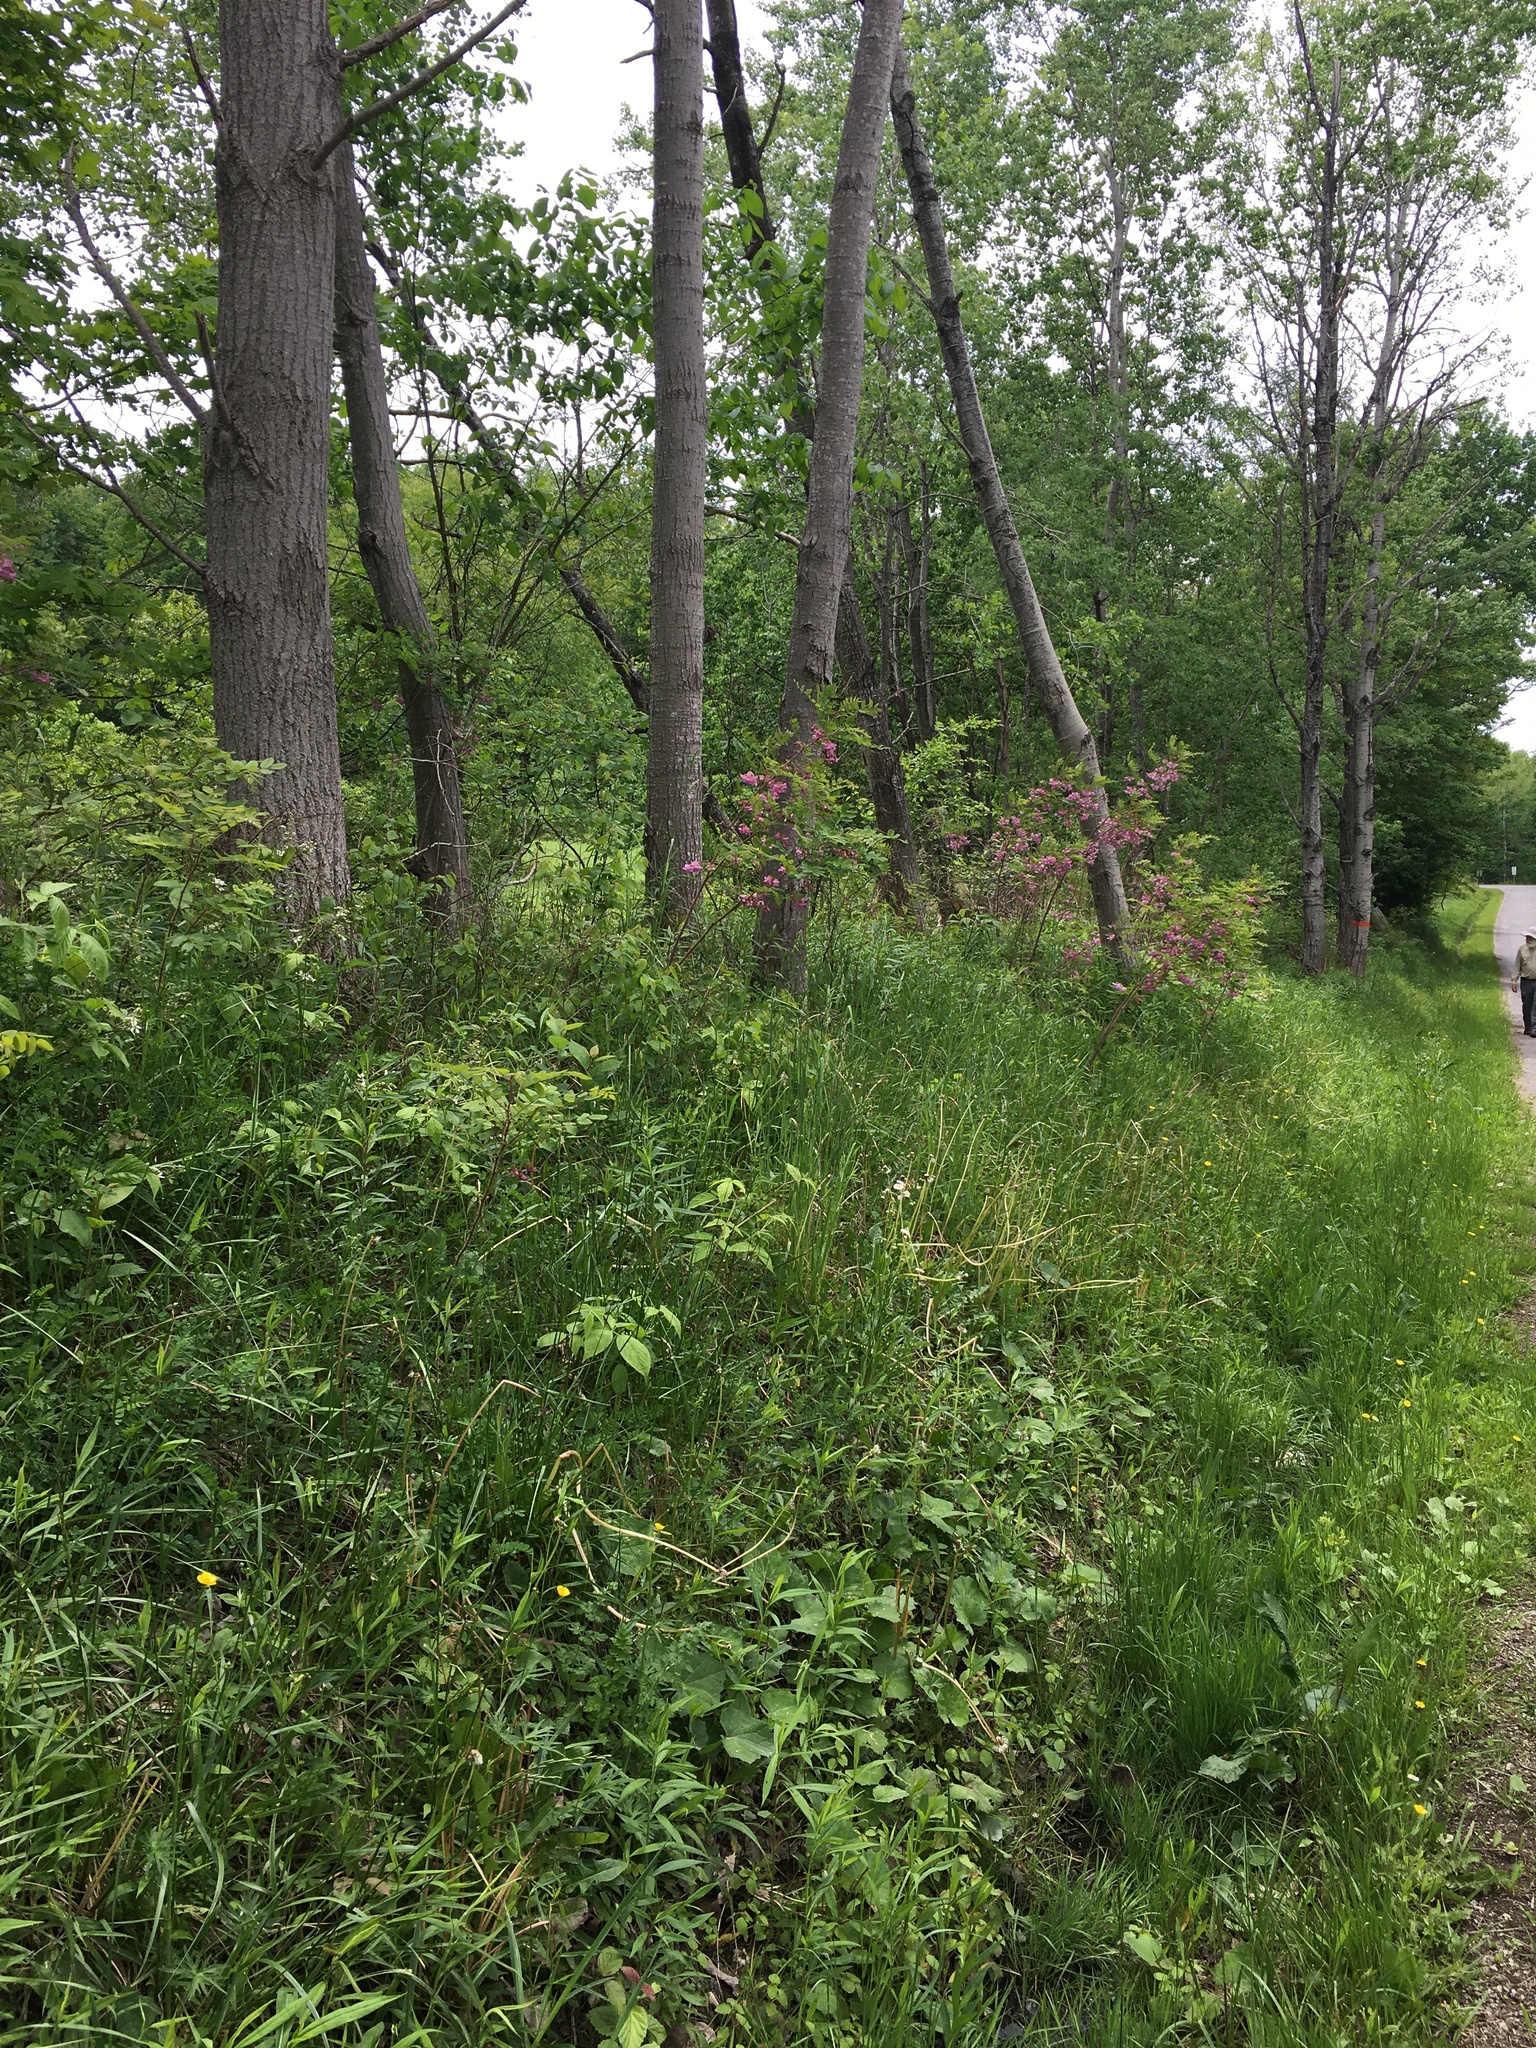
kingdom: Plantae
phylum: Tracheophyta
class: Magnoliopsida
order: Fabales
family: Fabaceae
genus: Robinia
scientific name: Robinia hispida
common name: Bristly locust
